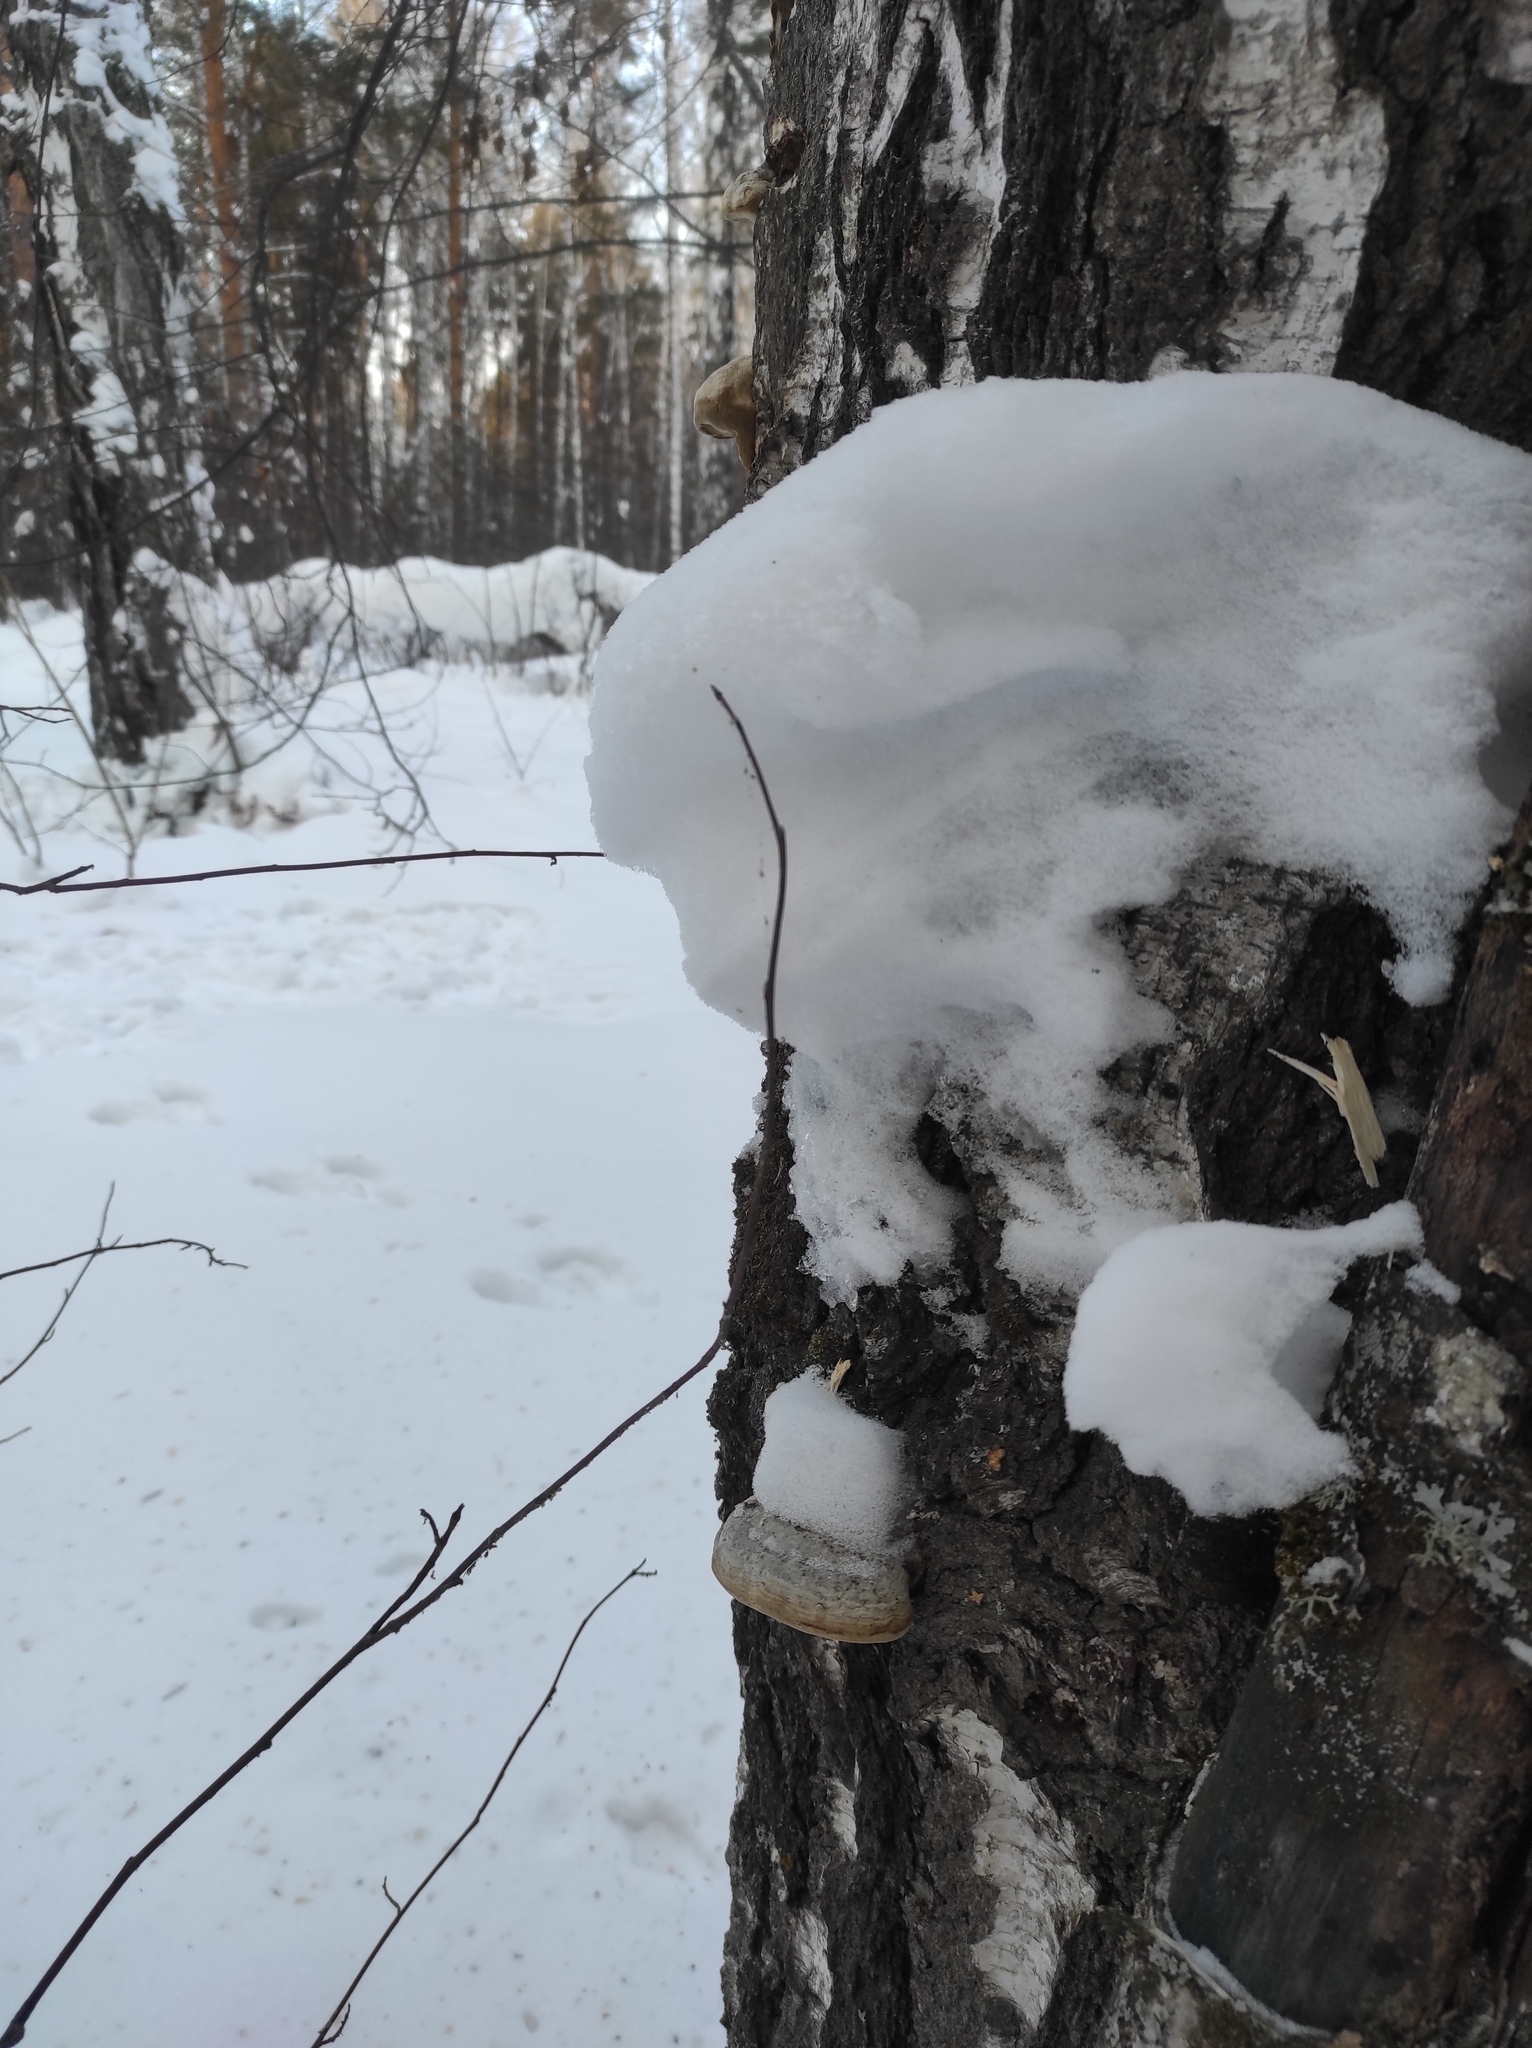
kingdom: Fungi
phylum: Basidiomycota
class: Agaricomycetes
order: Polyporales
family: Polyporaceae
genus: Fomes
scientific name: Fomes fomentarius
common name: Hoof fungus
